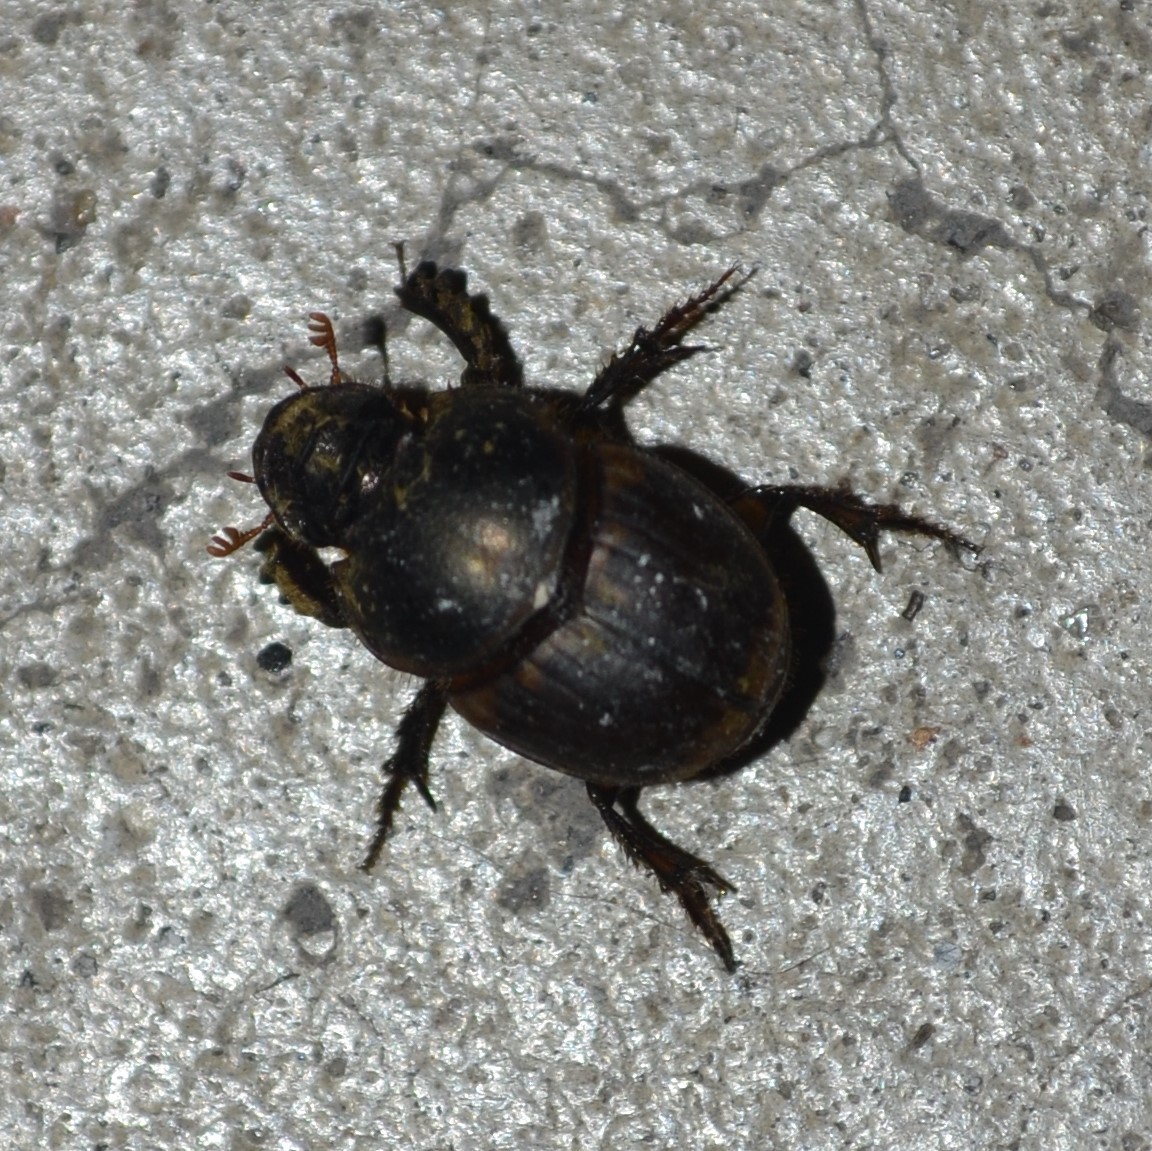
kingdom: Animalia
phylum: Arthropoda
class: Insecta
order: Coleoptera
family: Scarabaeidae
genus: Digitonthophagus
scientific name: Digitonthophagus gazella
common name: Brown dung beetle
